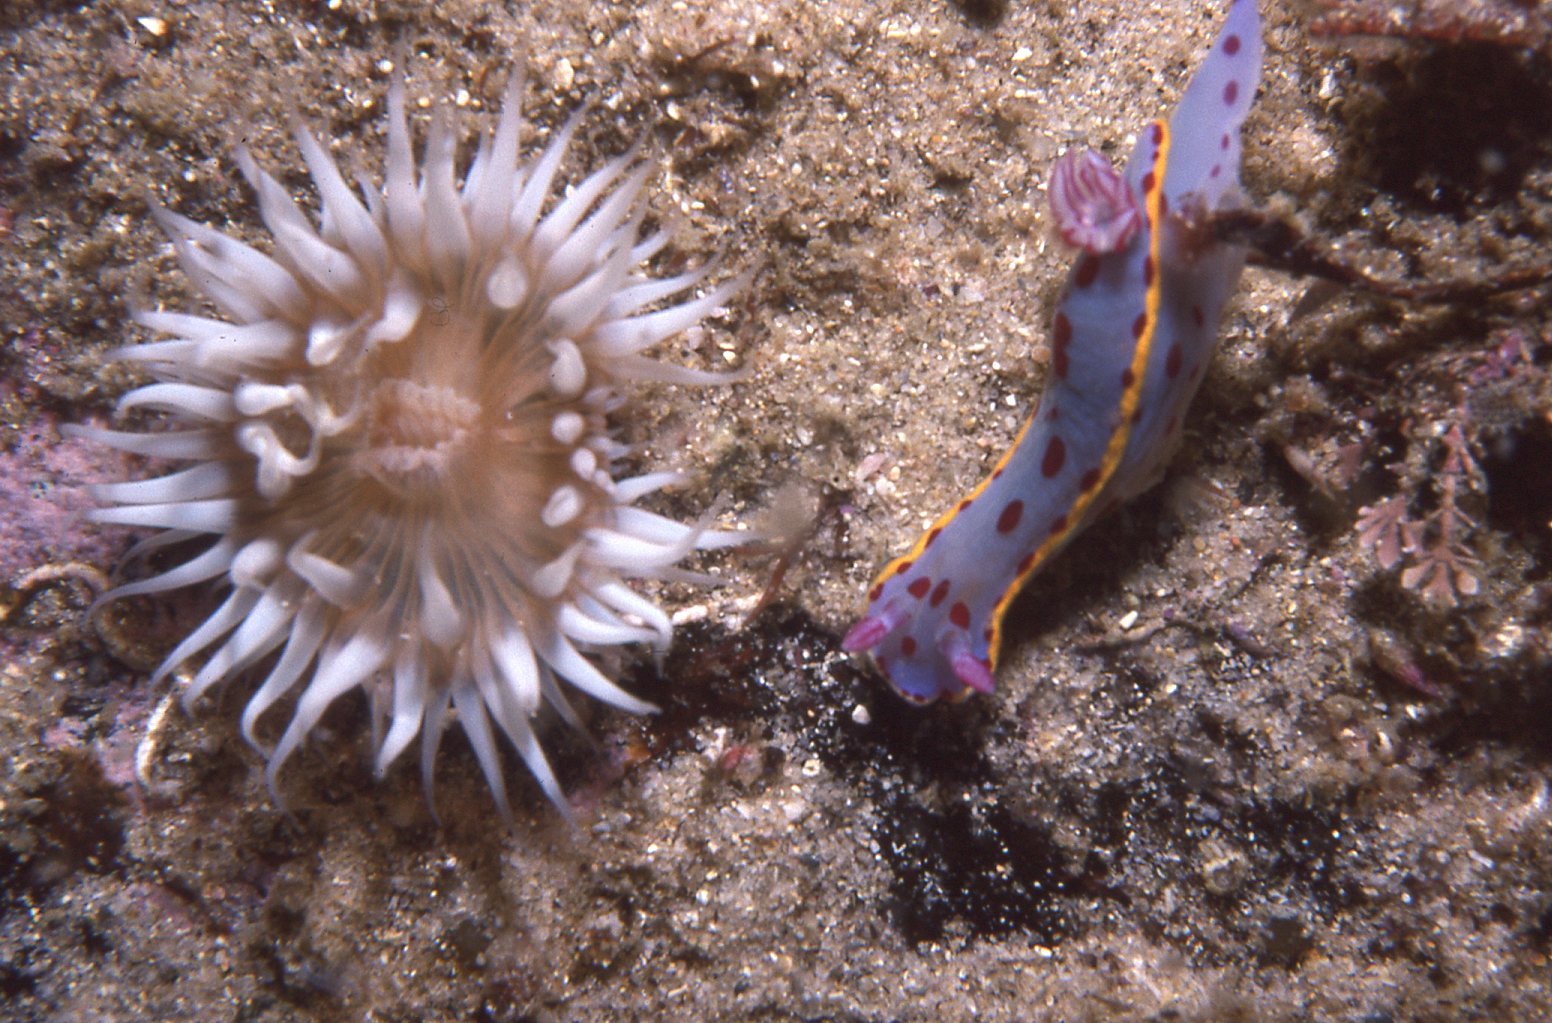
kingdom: Animalia
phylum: Cnidaria
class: Anthozoa
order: Actiniaria
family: Sagartiidae
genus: Anthothoe
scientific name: Anthothoe albocincta
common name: Orange striped anemone
